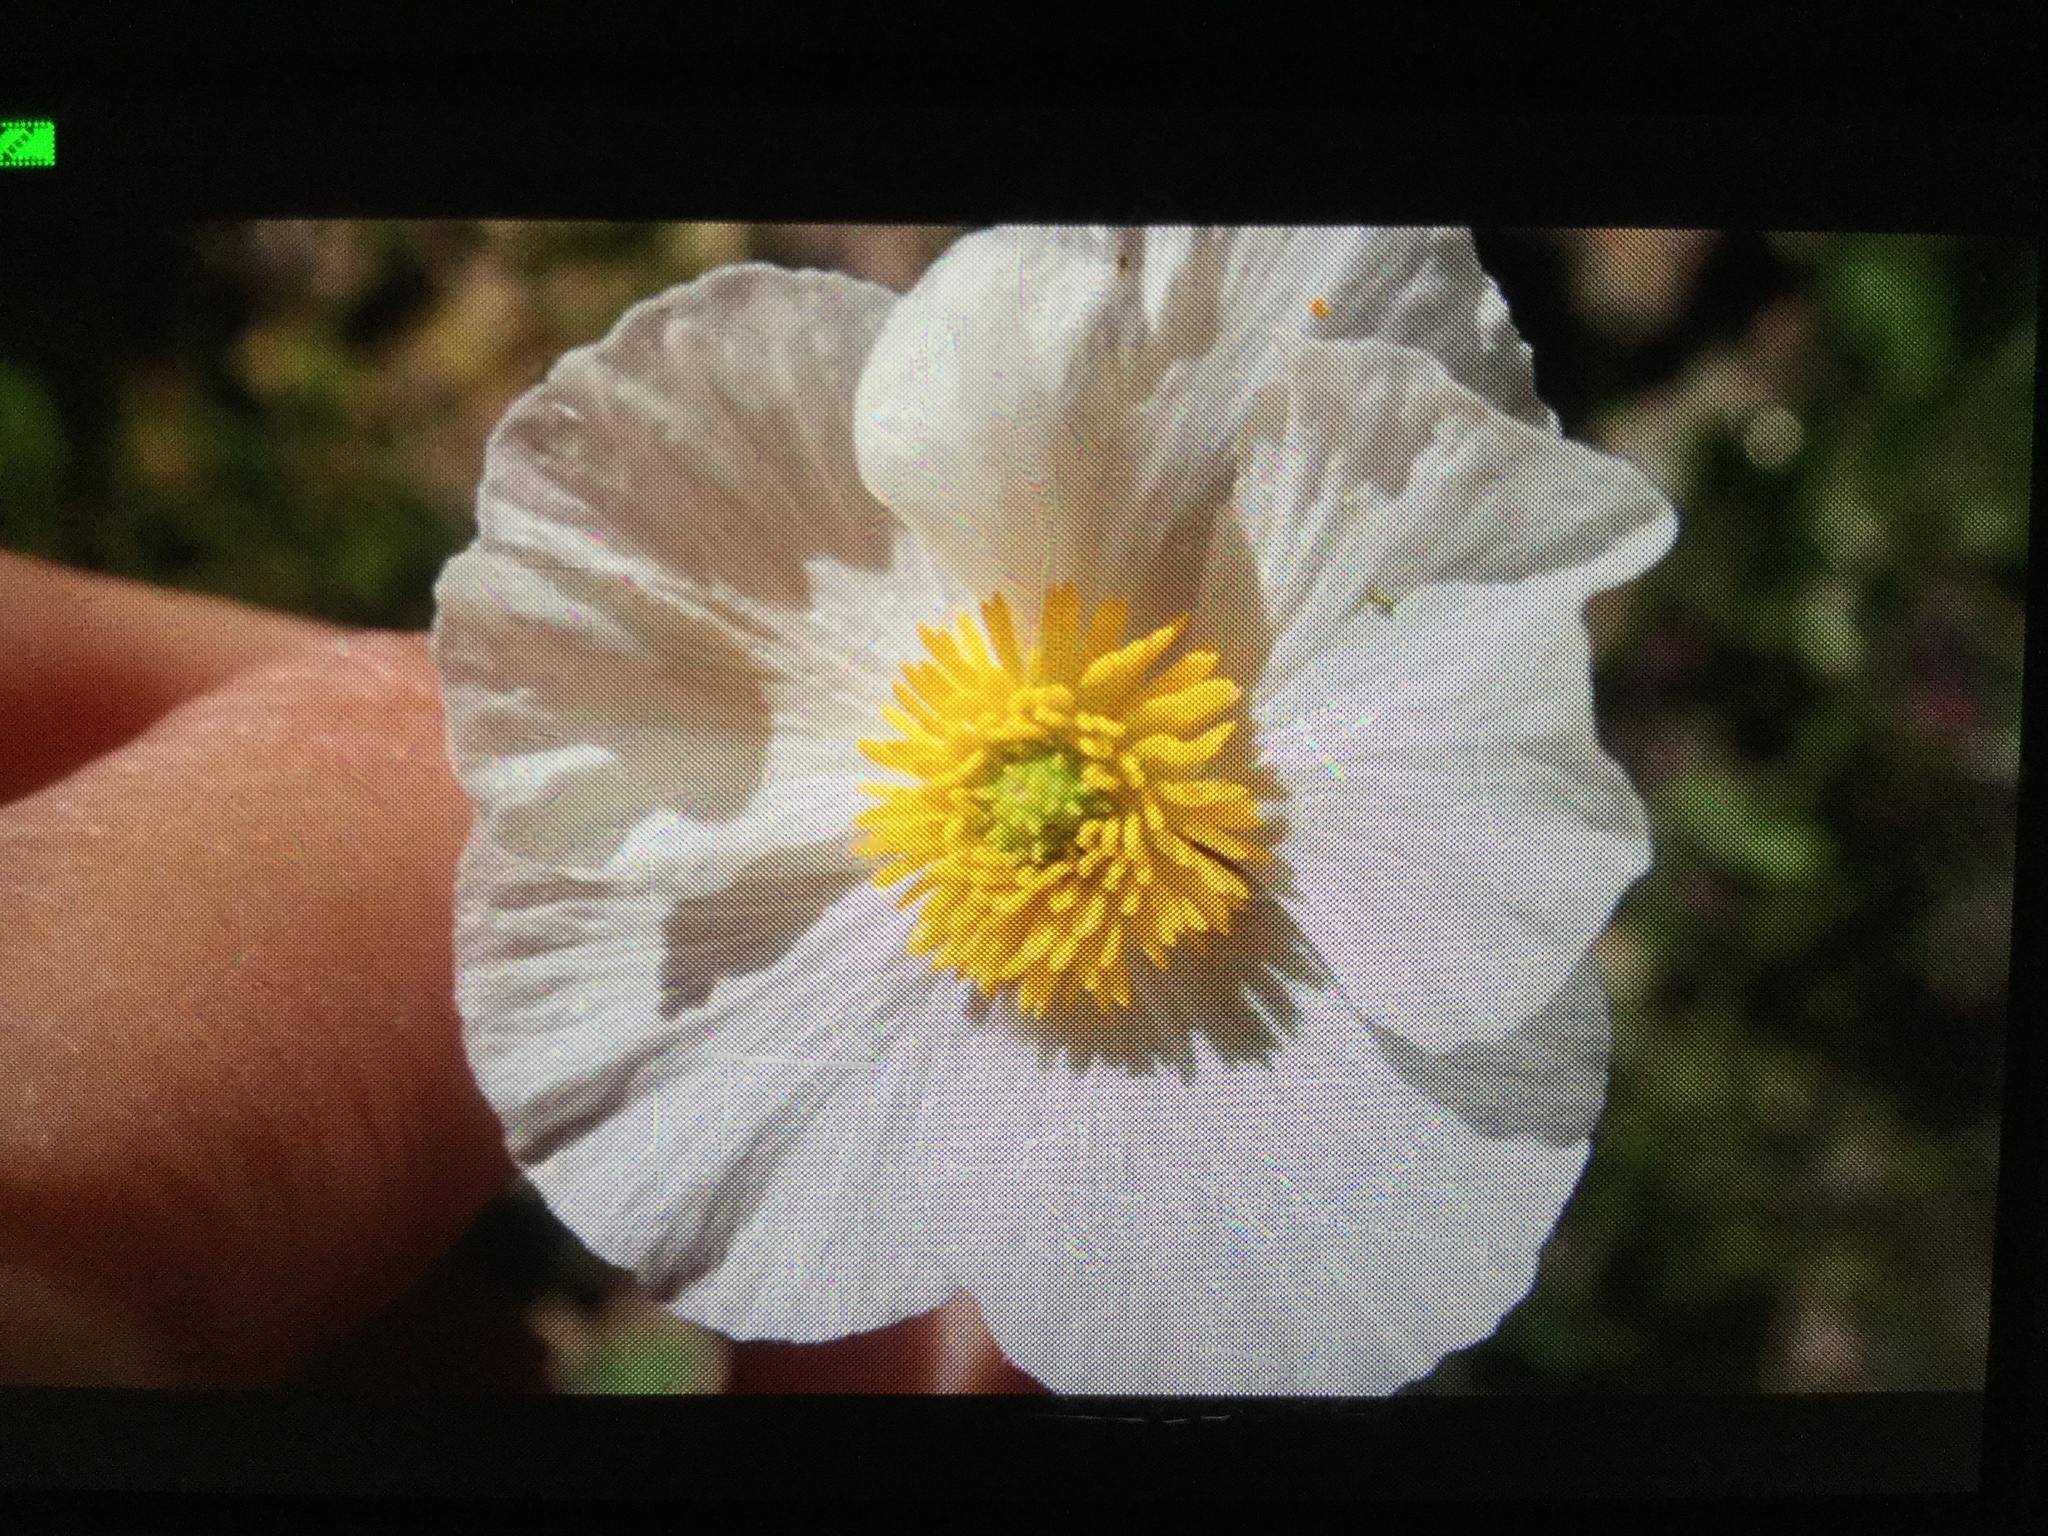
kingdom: Plantae
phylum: Tracheophyta
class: Magnoliopsida
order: Ranunculales
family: Ranunculaceae
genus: Ranunculus
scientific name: Ranunculus pyrenaeus
